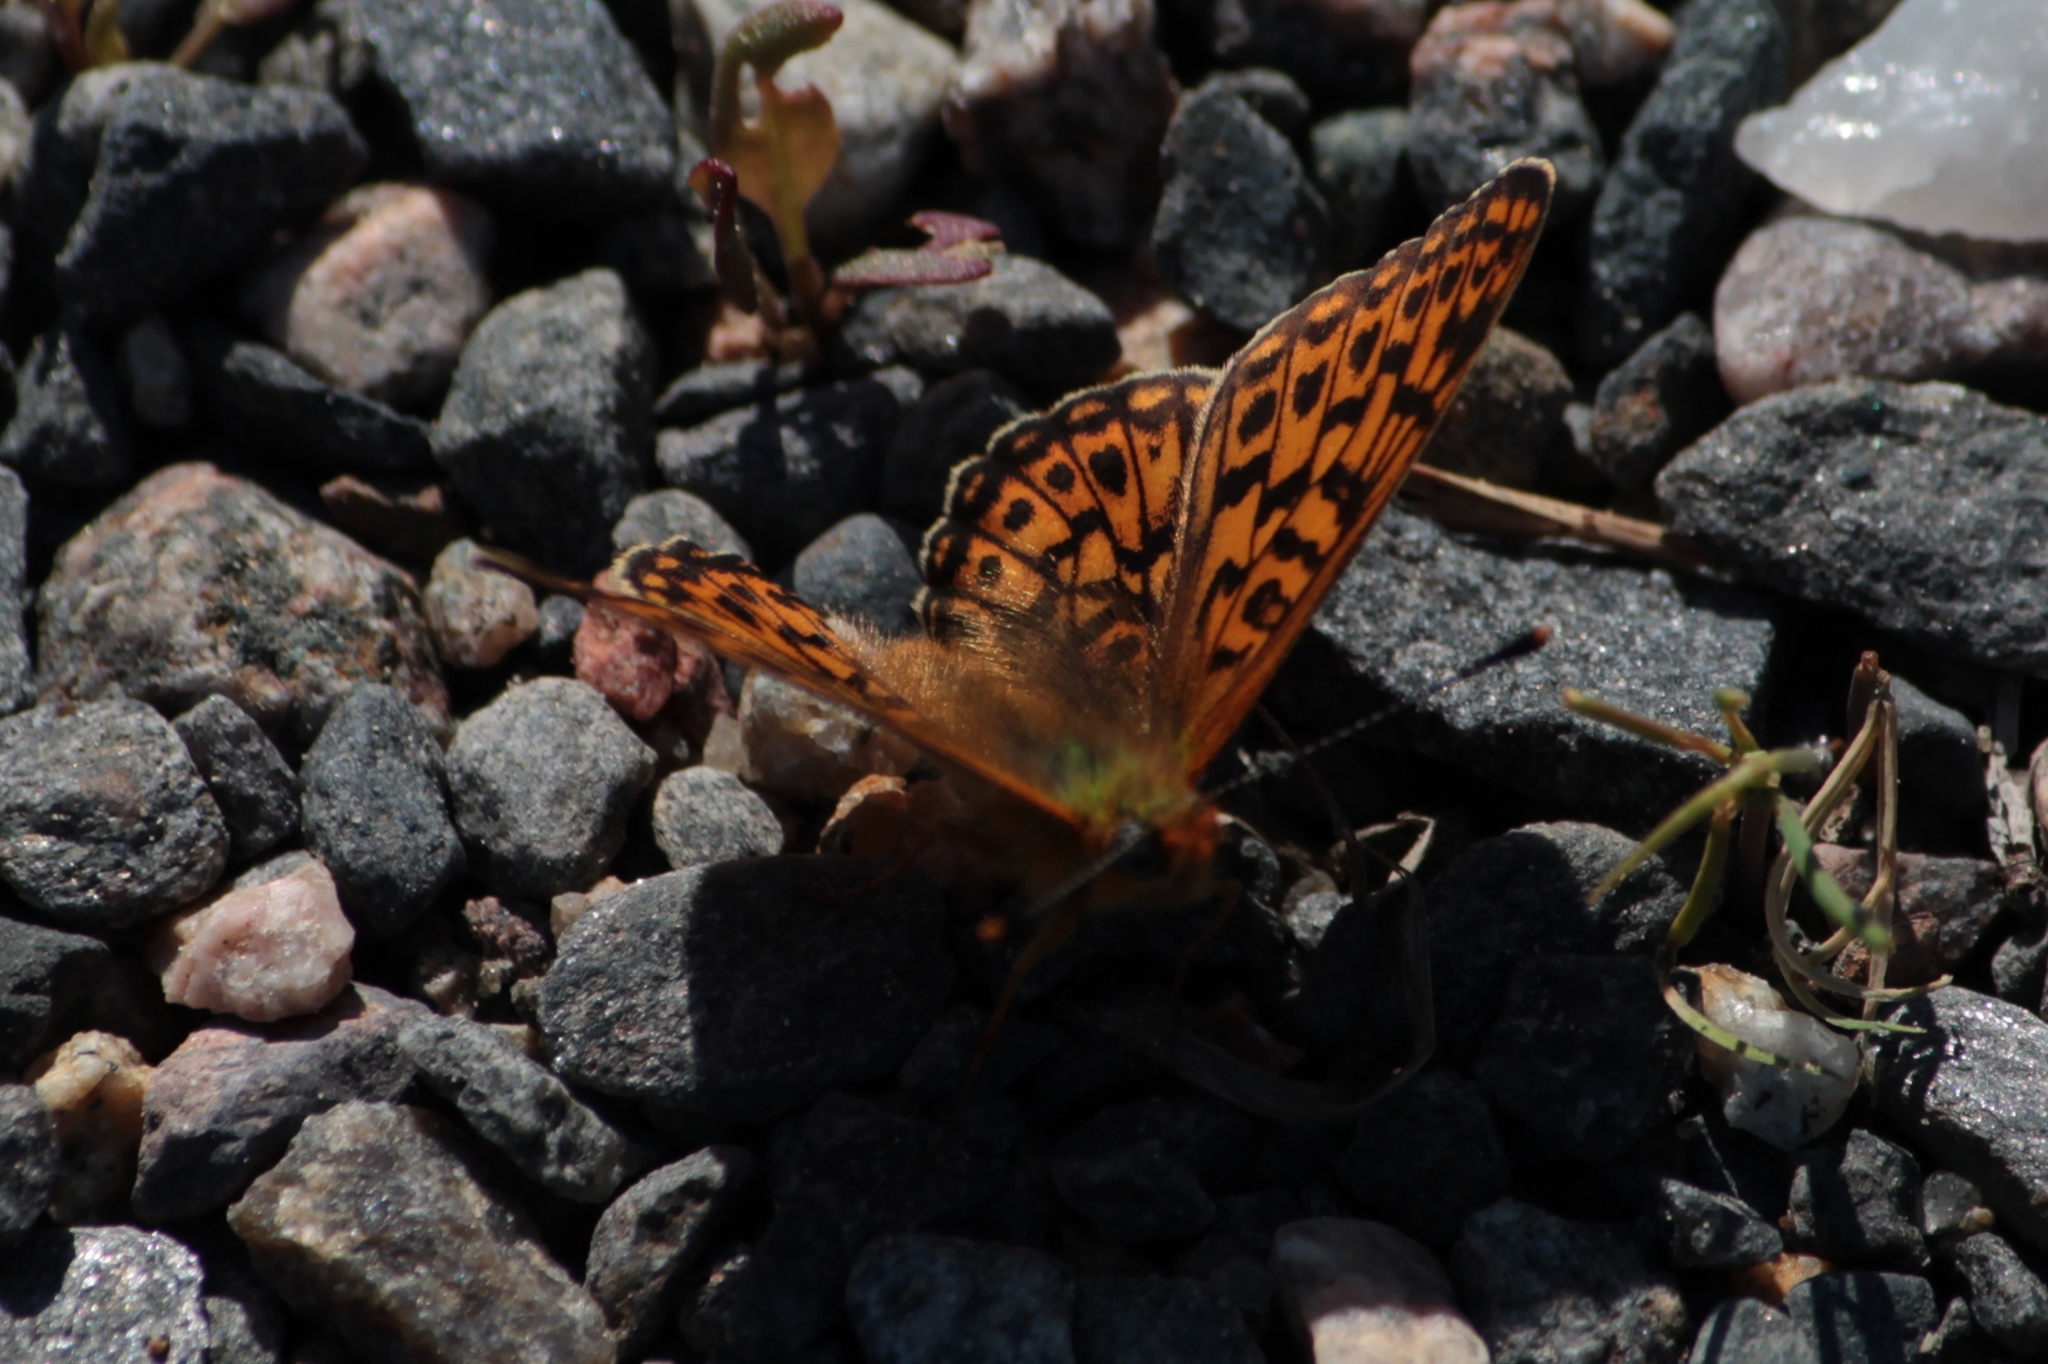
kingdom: Animalia
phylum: Arthropoda
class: Insecta
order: Lepidoptera
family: Nymphalidae
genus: Clossiana
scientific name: Clossiana euphrosyne
